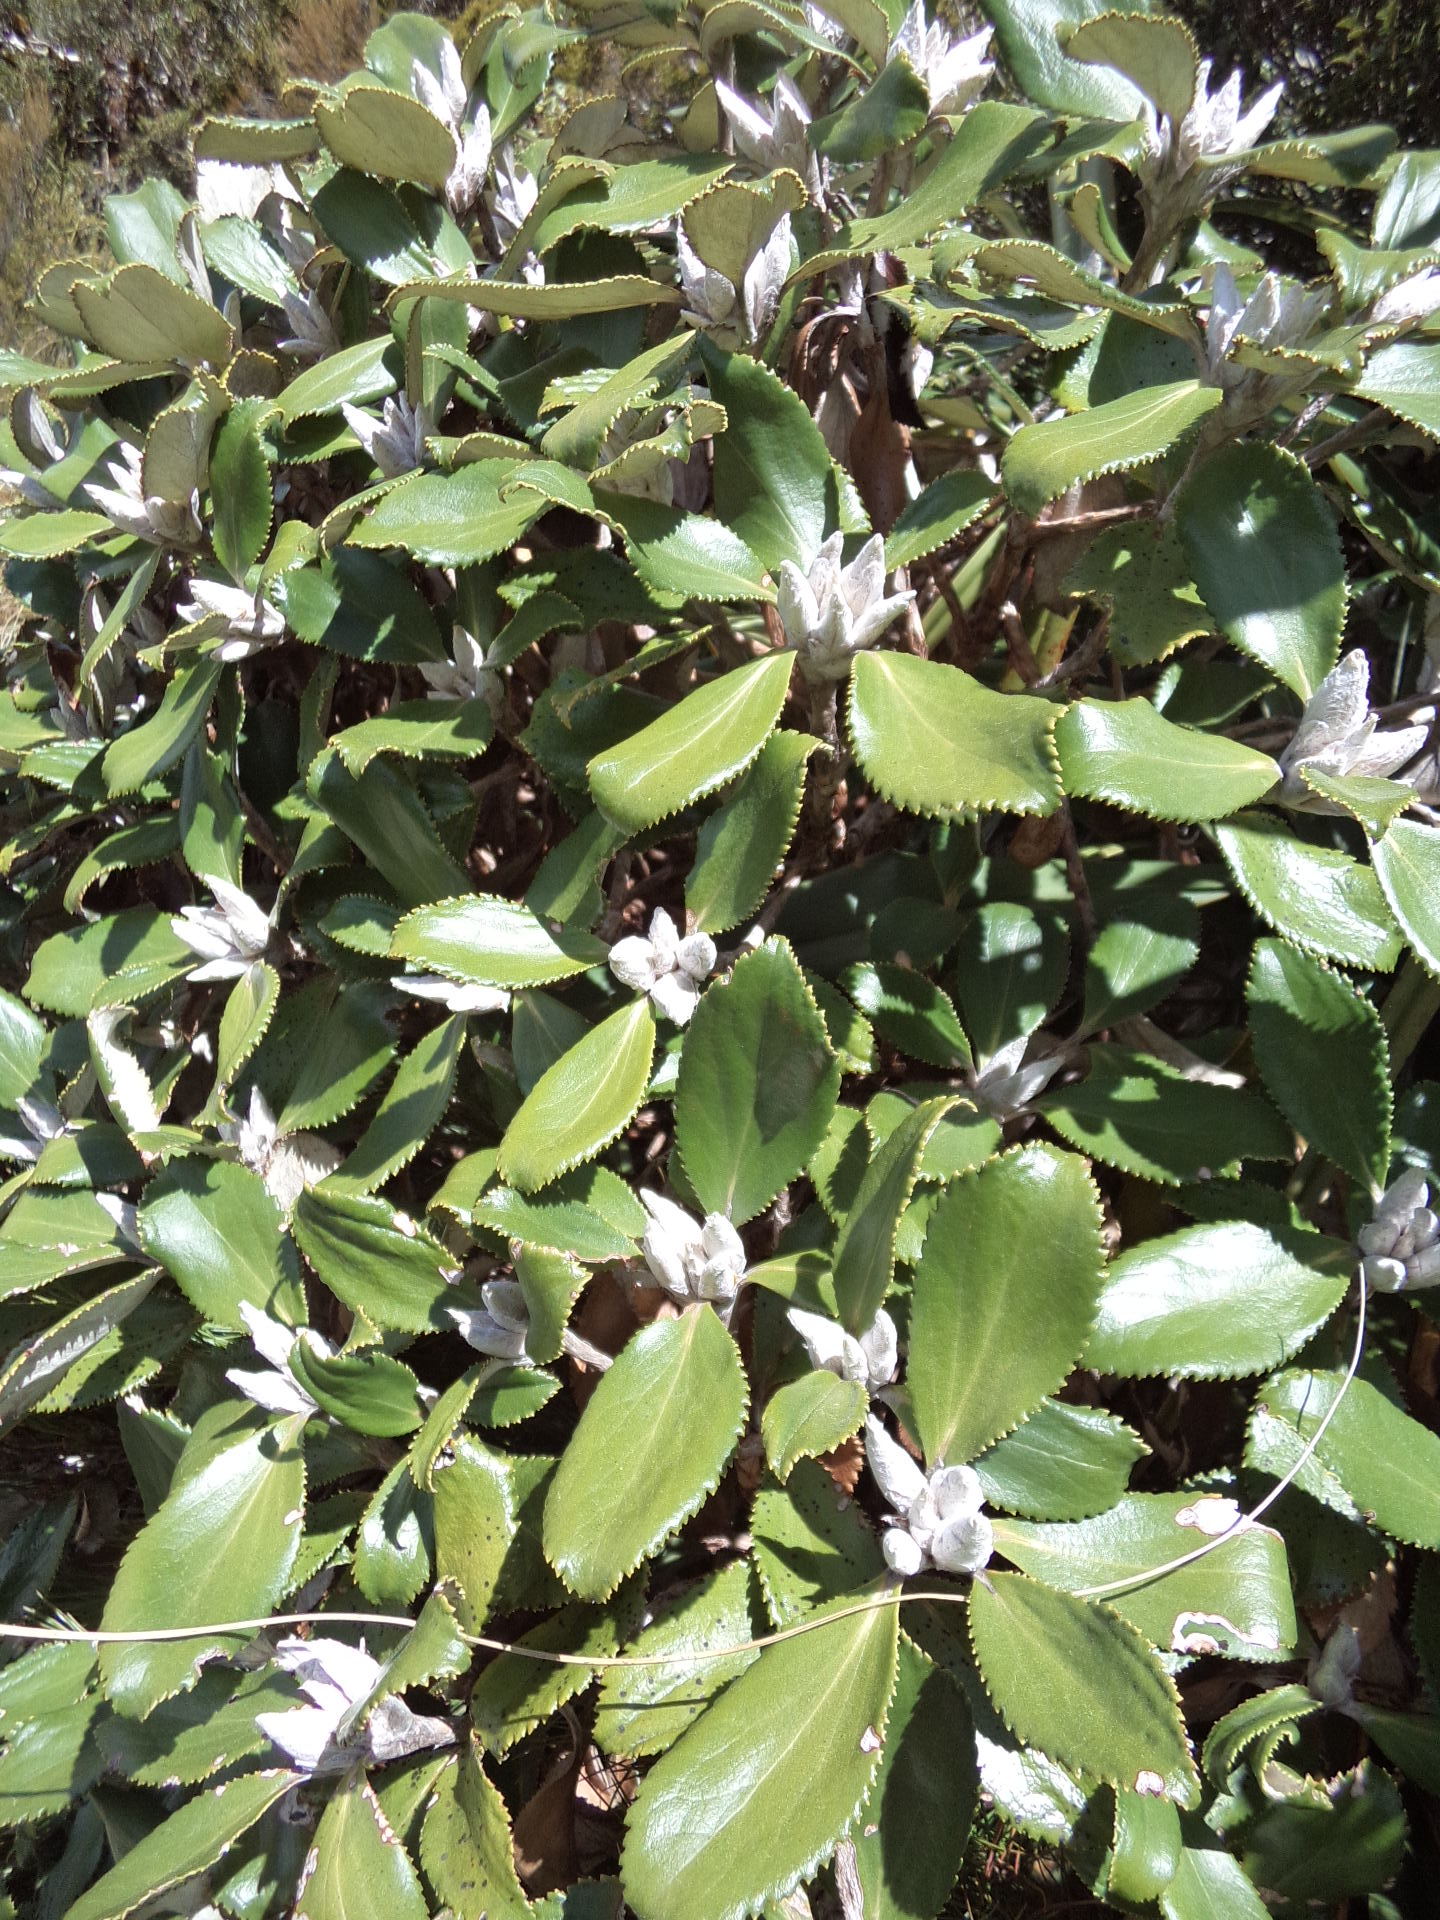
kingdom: Plantae
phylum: Tracheophyta
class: Magnoliopsida
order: Asterales
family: Asteraceae
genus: Macrolearia
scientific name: Macrolearia colensoi
